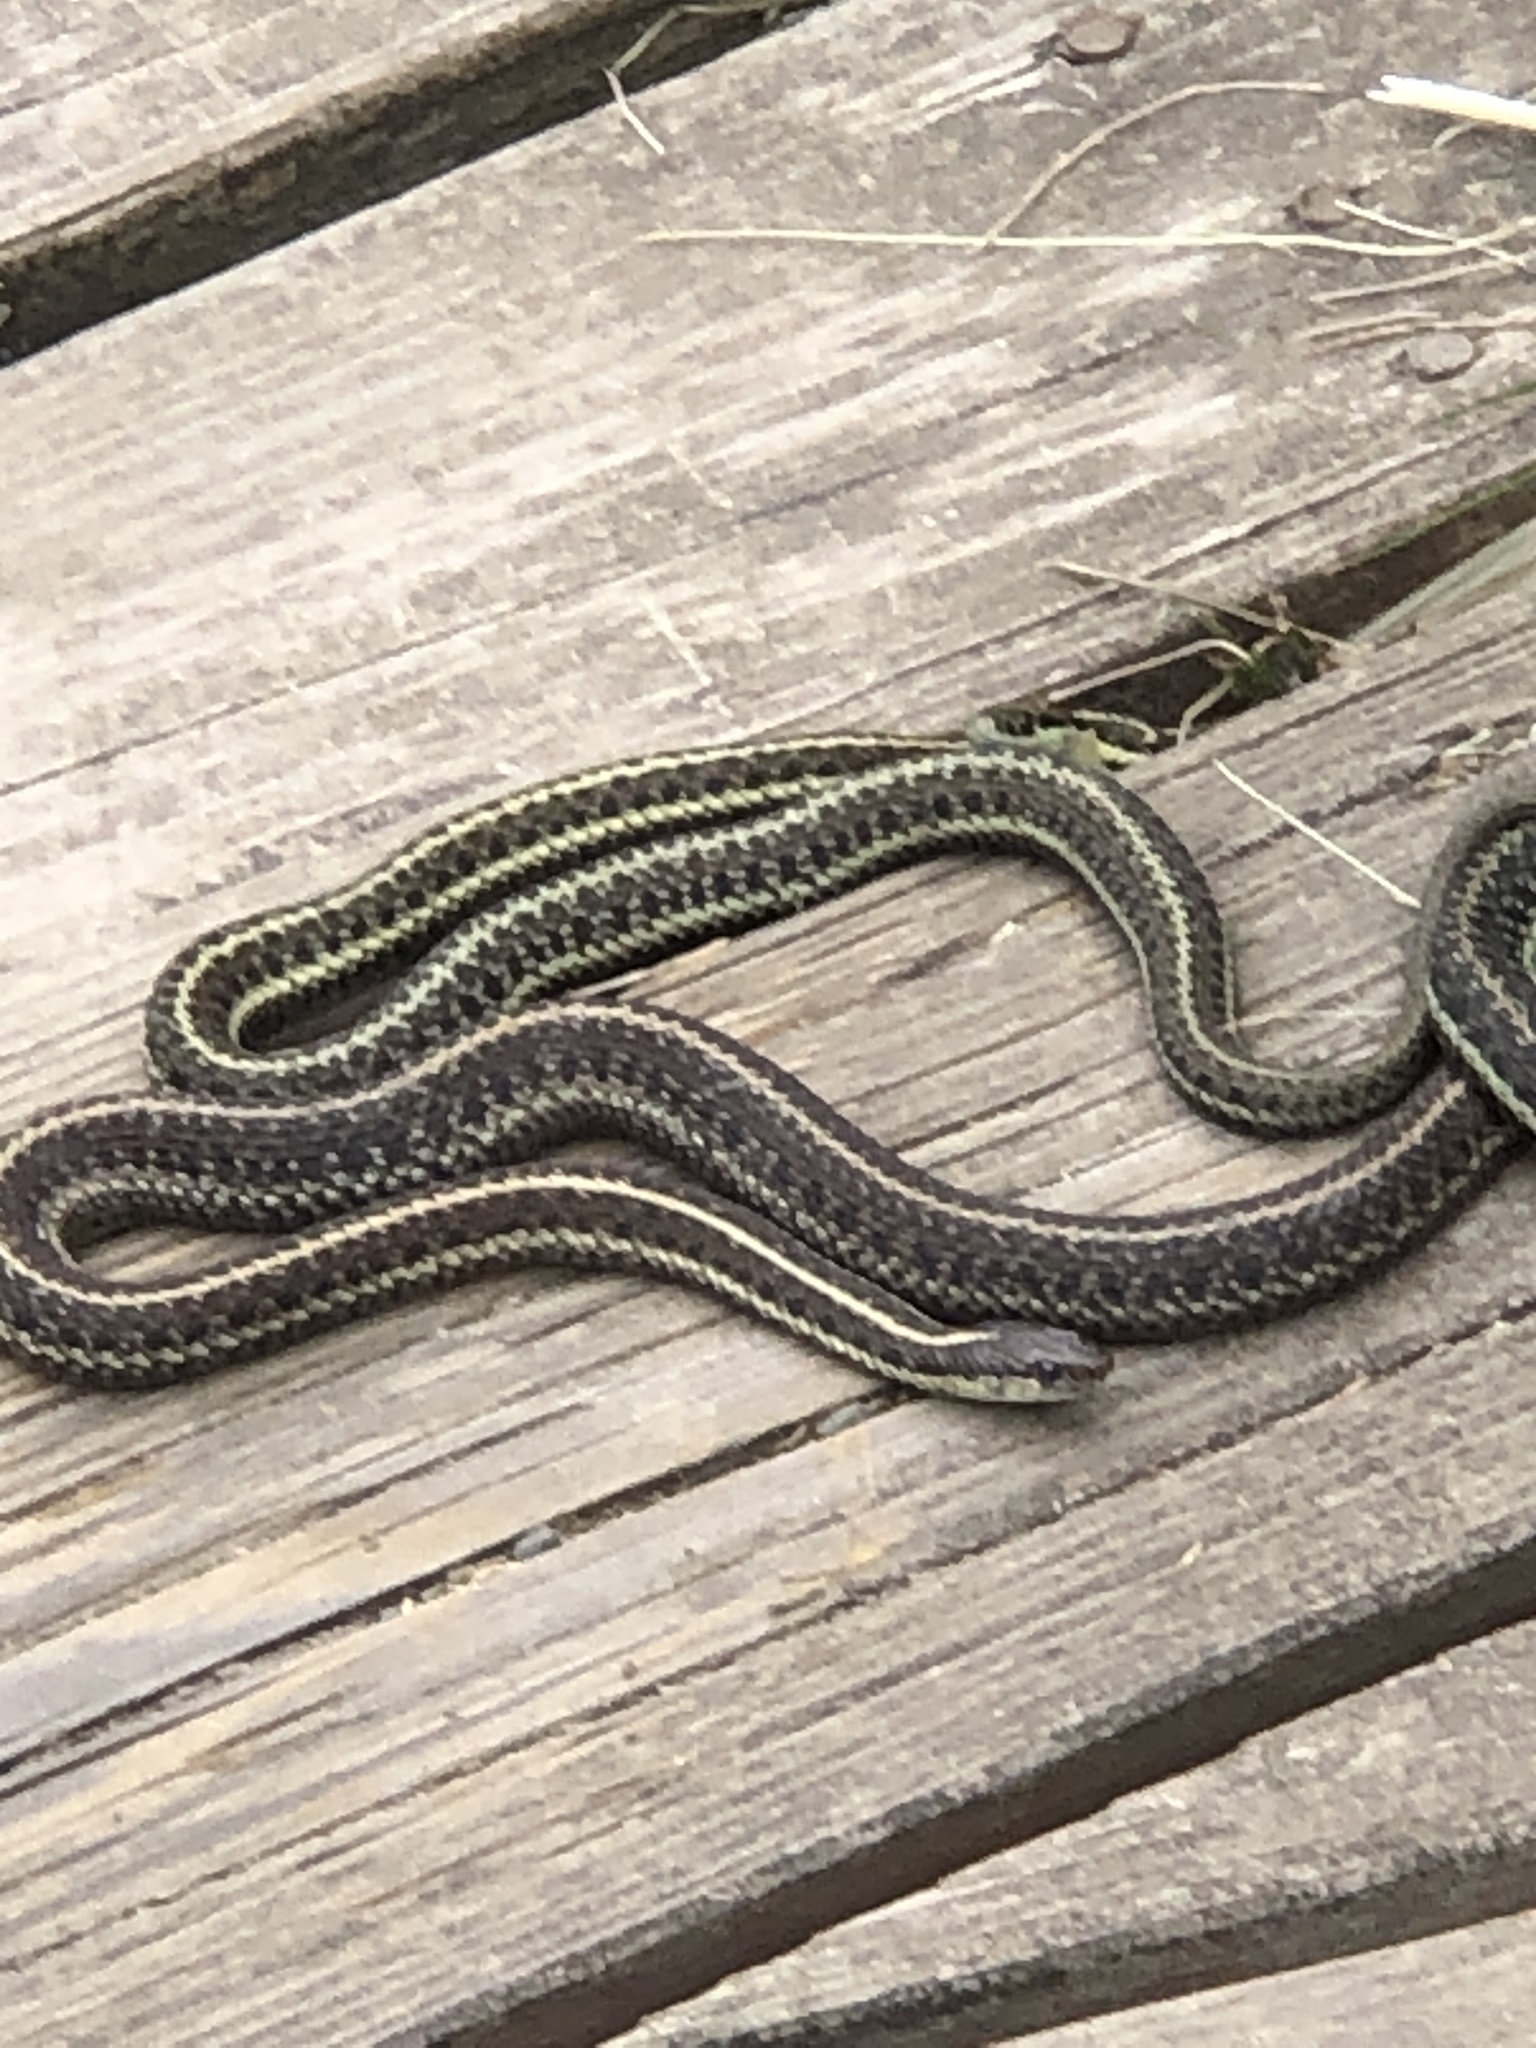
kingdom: Animalia
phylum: Chordata
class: Squamata
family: Colubridae
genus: Thamnophis
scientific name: Thamnophis ordinoides
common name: Northwestern garter snake
